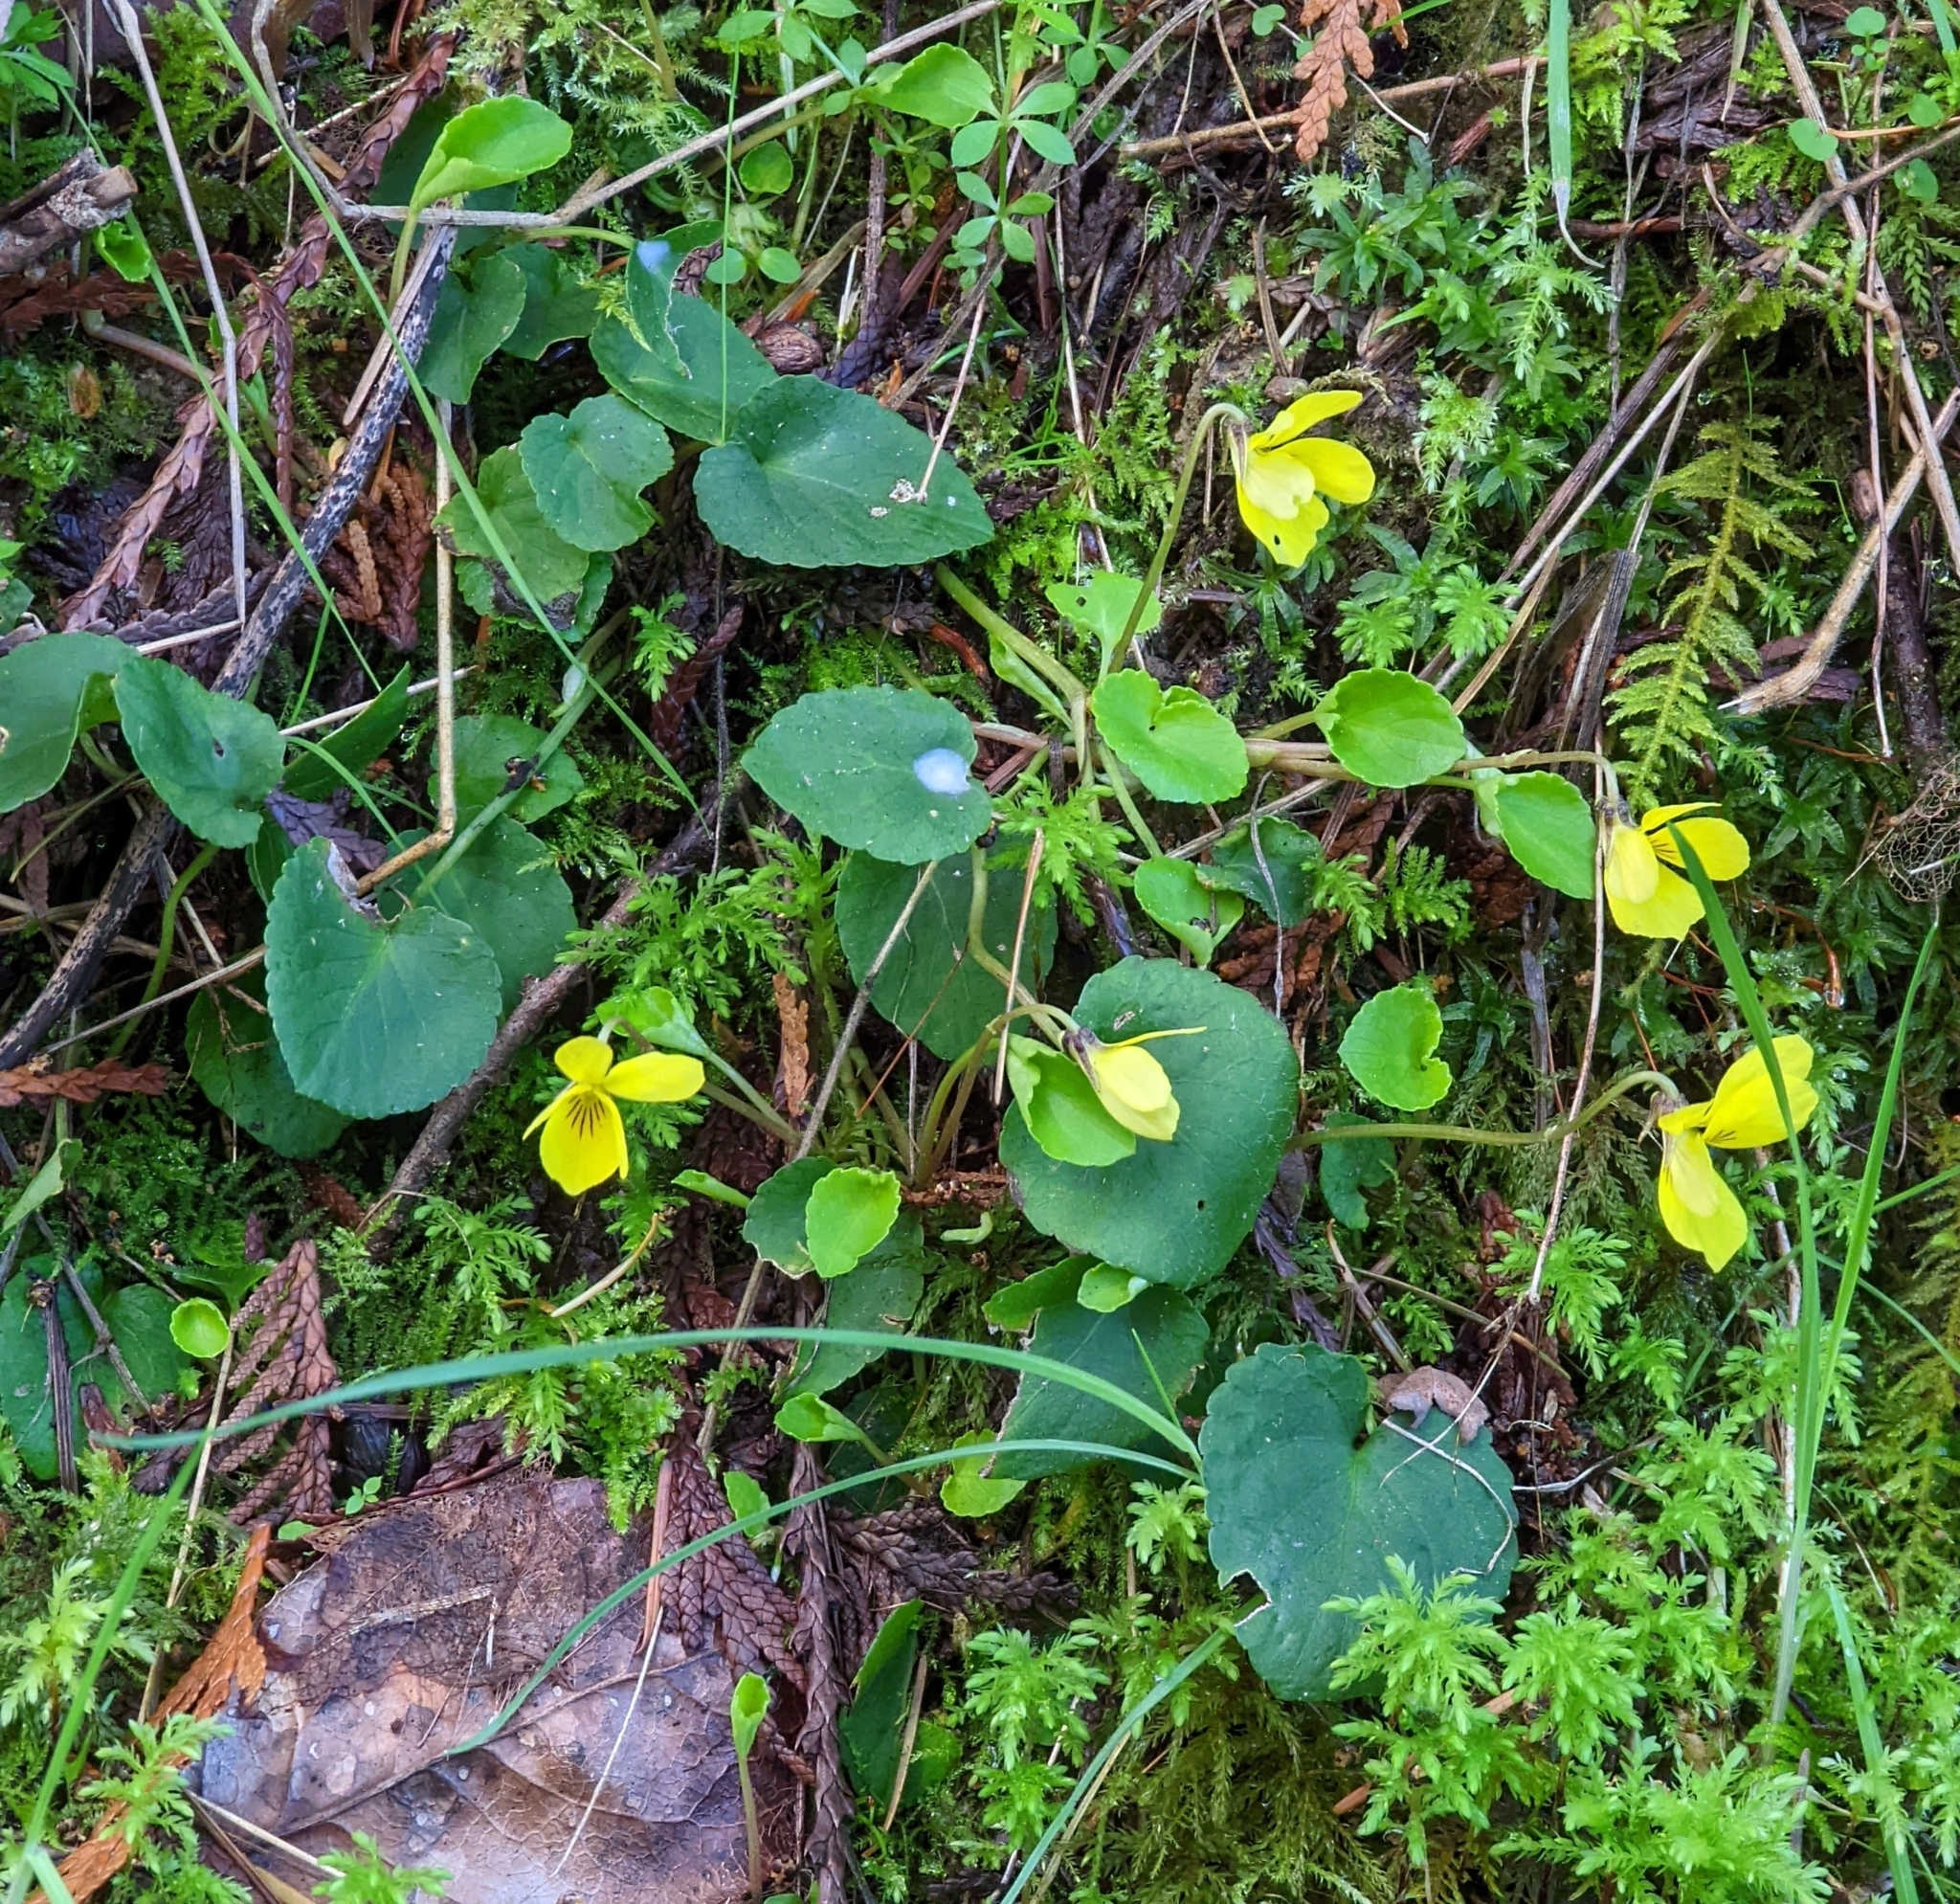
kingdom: Plantae
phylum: Tracheophyta
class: Magnoliopsida
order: Malpighiales
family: Violaceae
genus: Viola
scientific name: Viola sempervirens
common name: Evergreen violet
